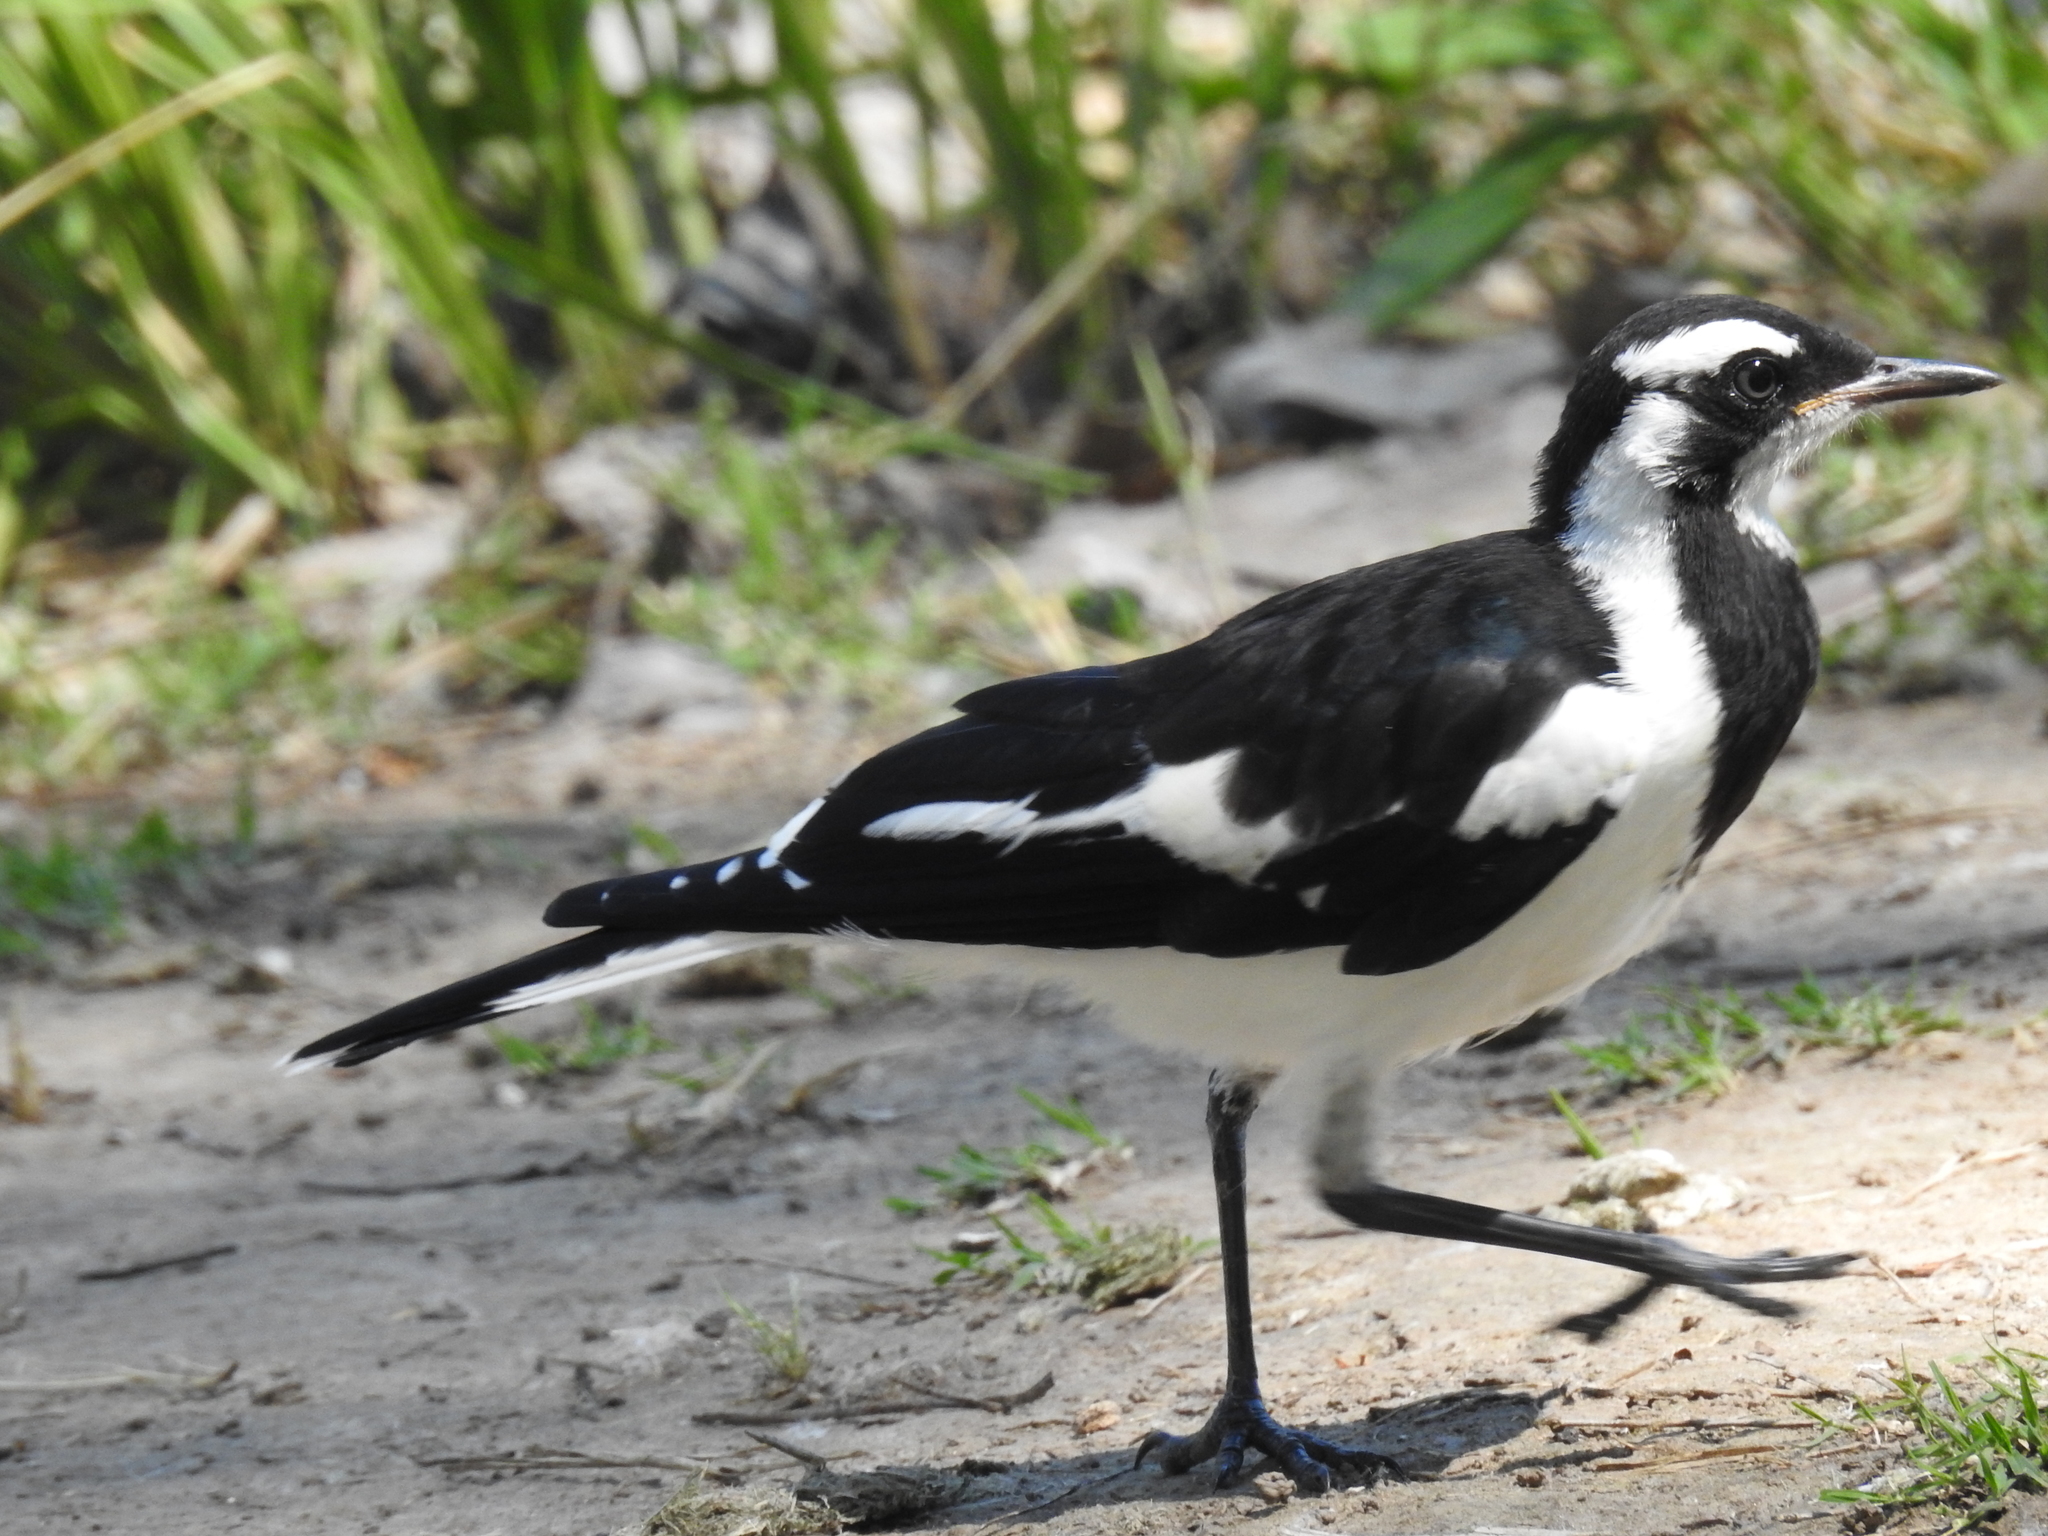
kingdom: Animalia
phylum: Chordata
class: Aves
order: Passeriformes
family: Monarchidae
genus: Grallina
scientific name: Grallina cyanoleuca
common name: Magpie-lark
